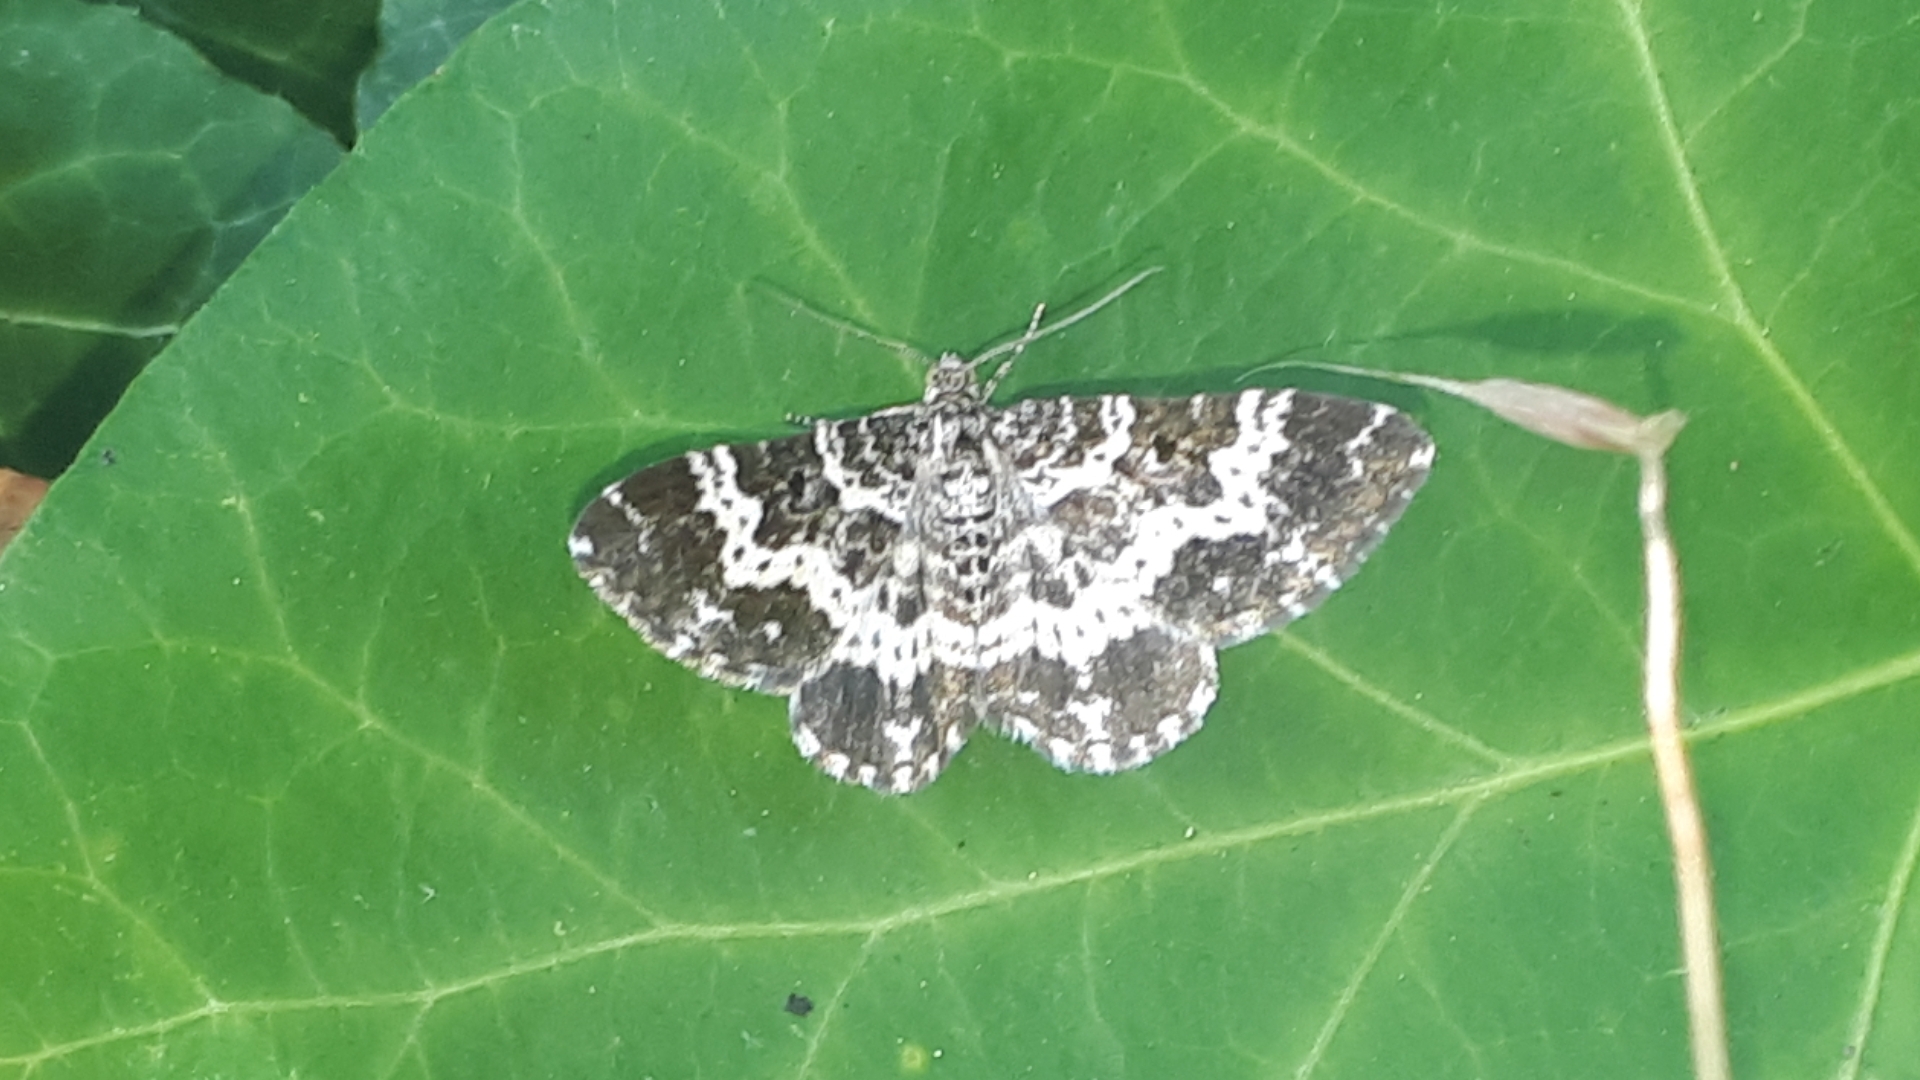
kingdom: Animalia
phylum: Arthropoda
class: Insecta
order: Lepidoptera
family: Geometridae
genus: Epirrhoe
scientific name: Epirrhoe tristata
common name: Small argent & sable
